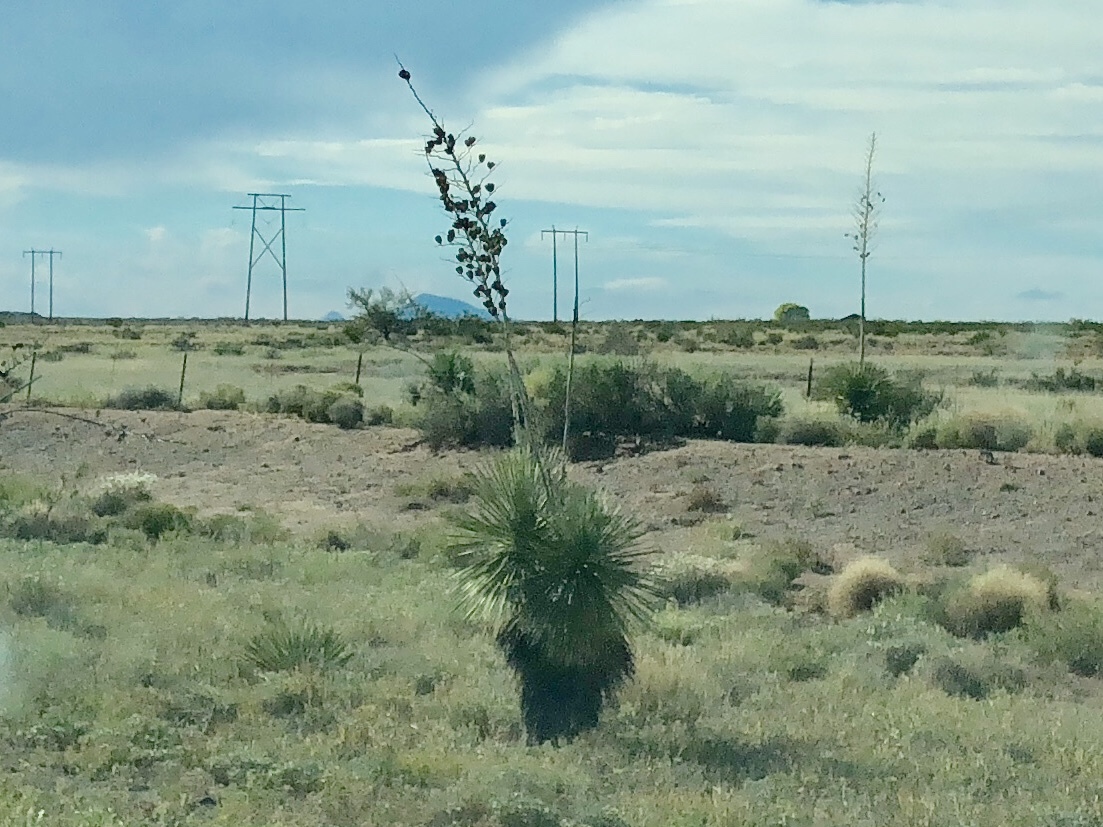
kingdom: Plantae
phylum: Tracheophyta
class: Liliopsida
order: Asparagales
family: Asparagaceae
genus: Yucca
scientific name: Yucca elata
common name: Palmella
